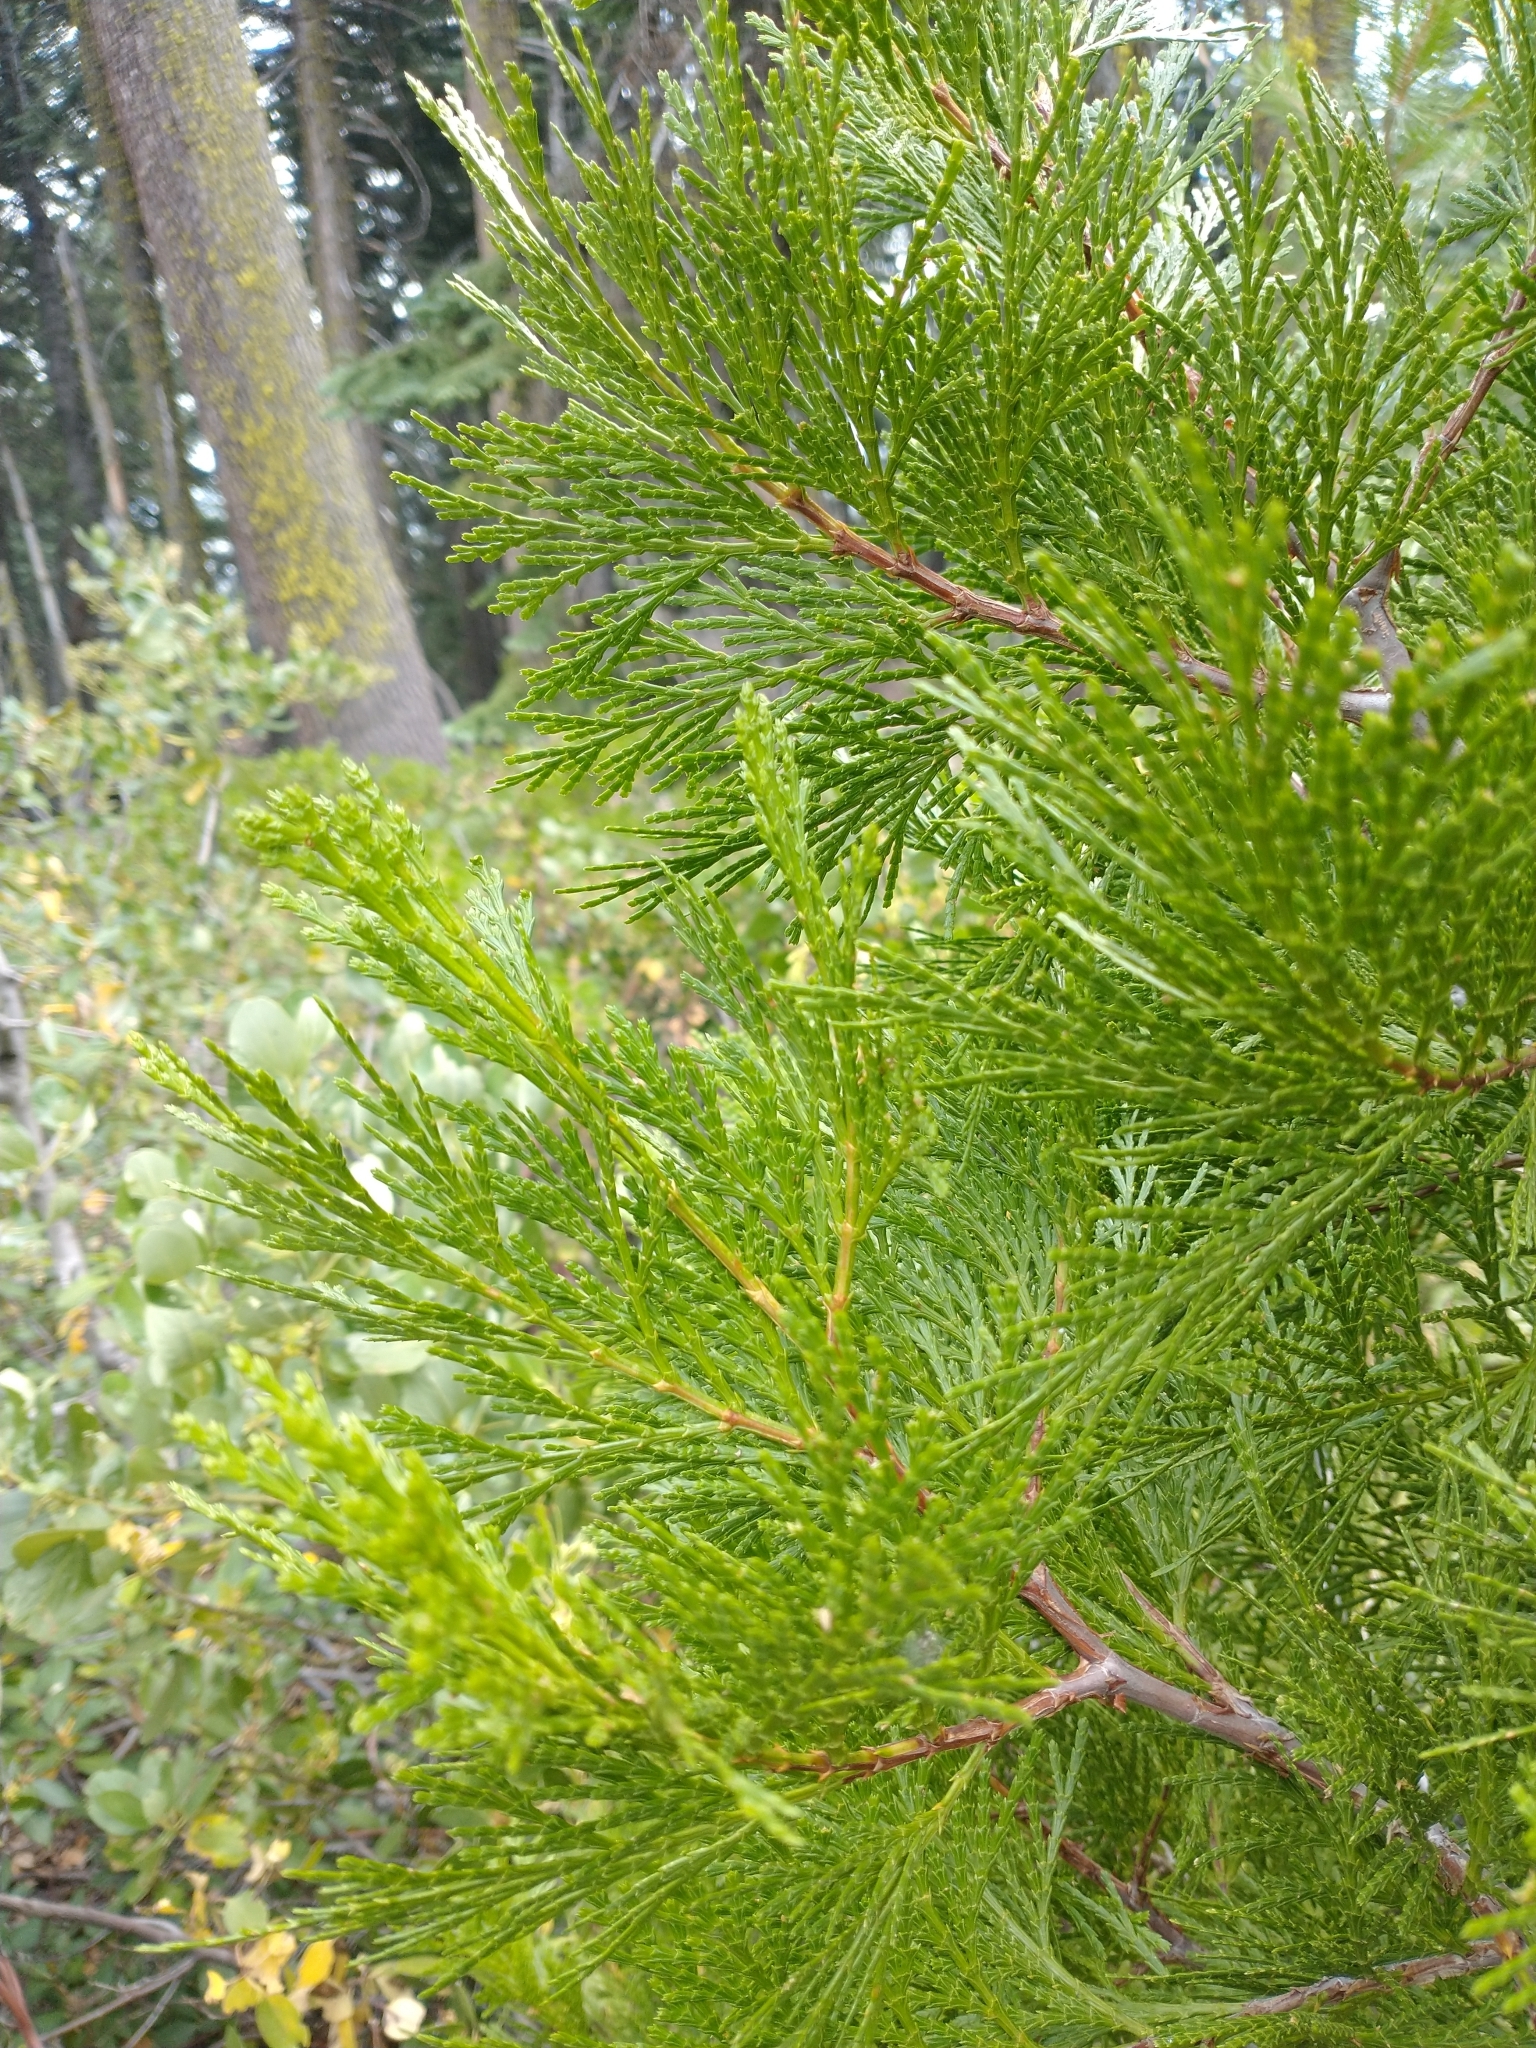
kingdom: Plantae
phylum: Tracheophyta
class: Pinopsida
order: Pinales
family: Cupressaceae
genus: Calocedrus
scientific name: Calocedrus decurrens
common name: Californian incense-cedar
